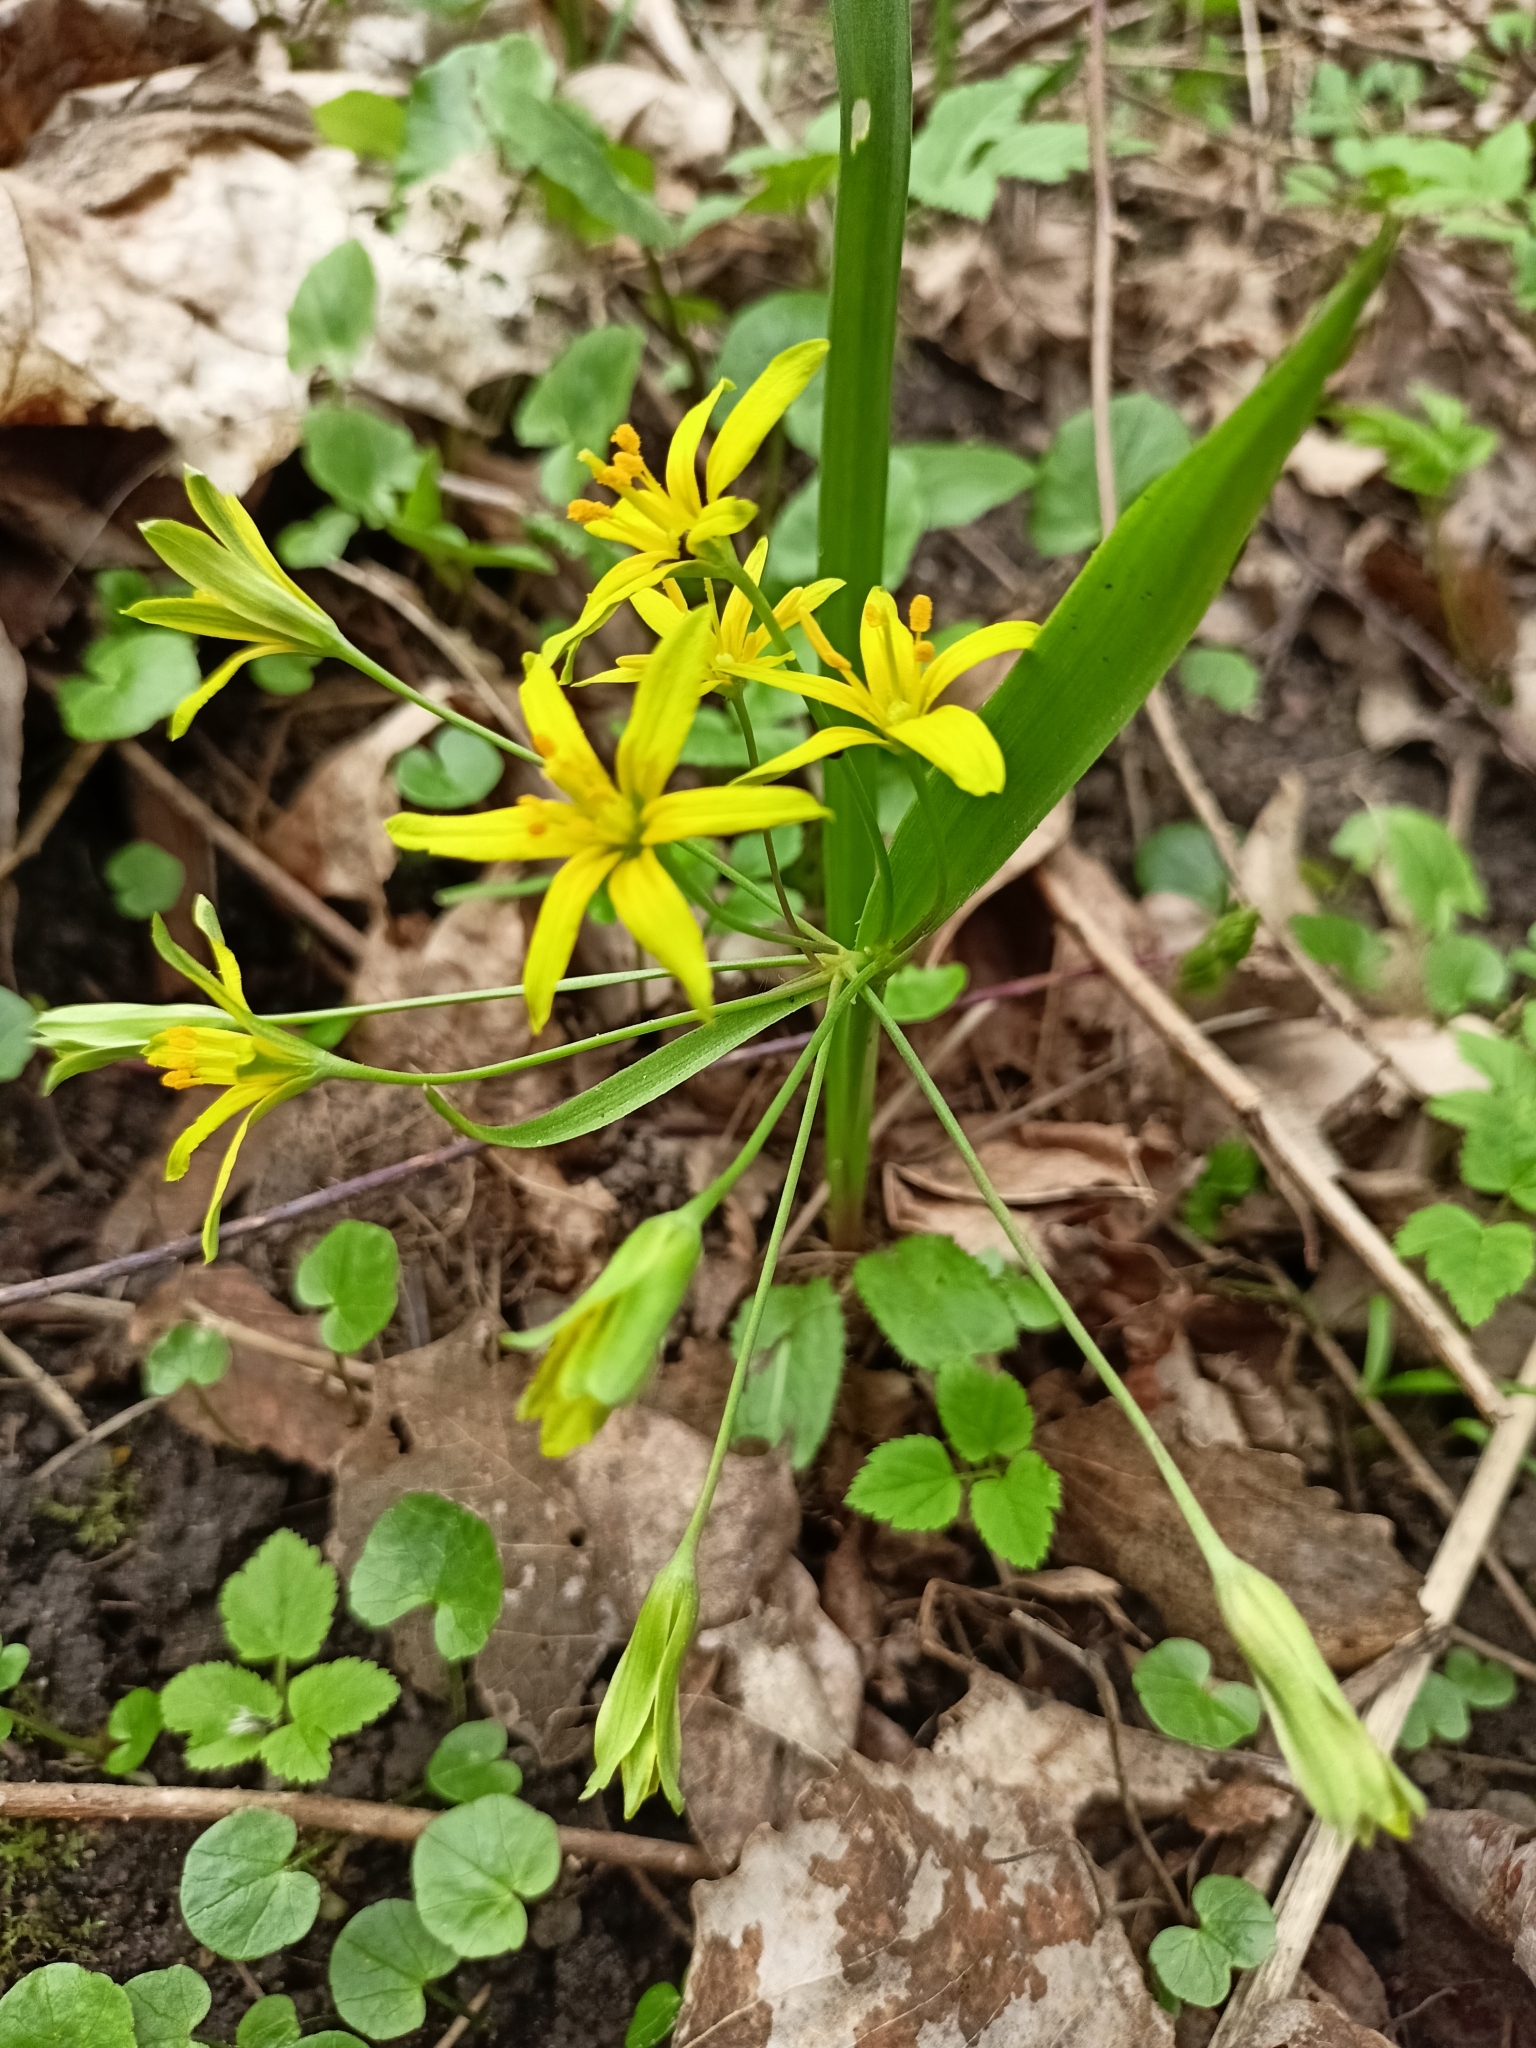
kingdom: Plantae
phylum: Tracheophyta
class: Liliopsida
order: Liliales
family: Liliaceae
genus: Gagea
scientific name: Gagea lutea
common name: Yellow star-of-bethlehem
